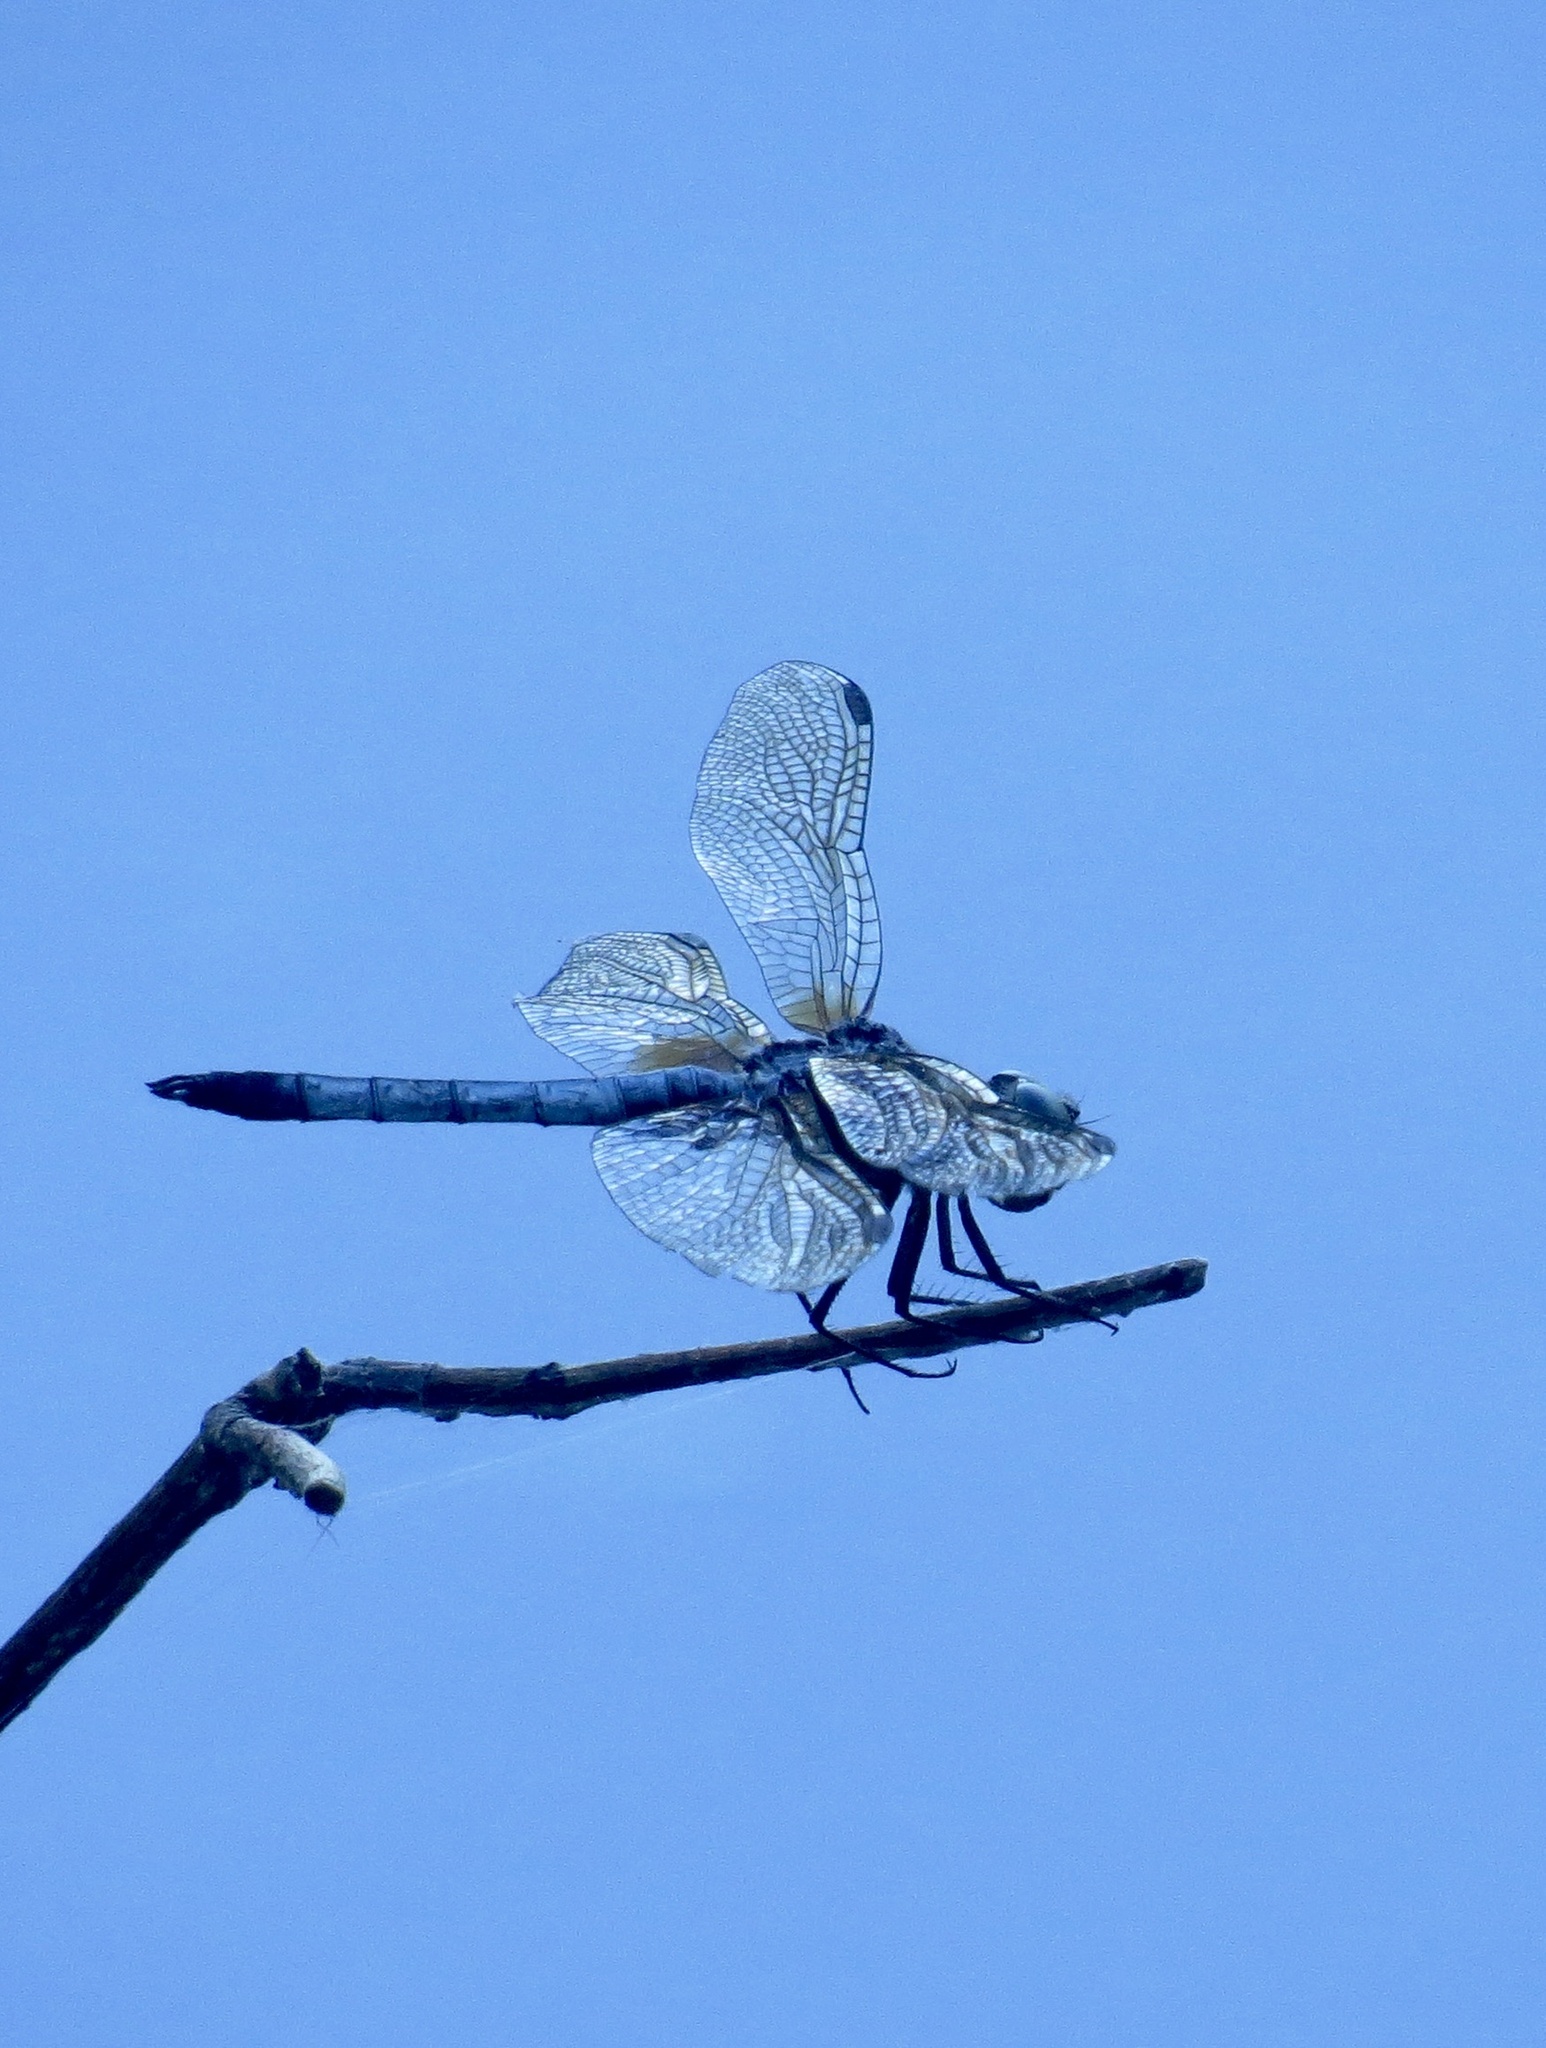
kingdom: Animalia
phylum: Arthropoda
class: Insecta
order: Odonata
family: Libellulidae
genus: Pachydiplax
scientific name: Pachydiplax longipennis
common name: Blue dasher
